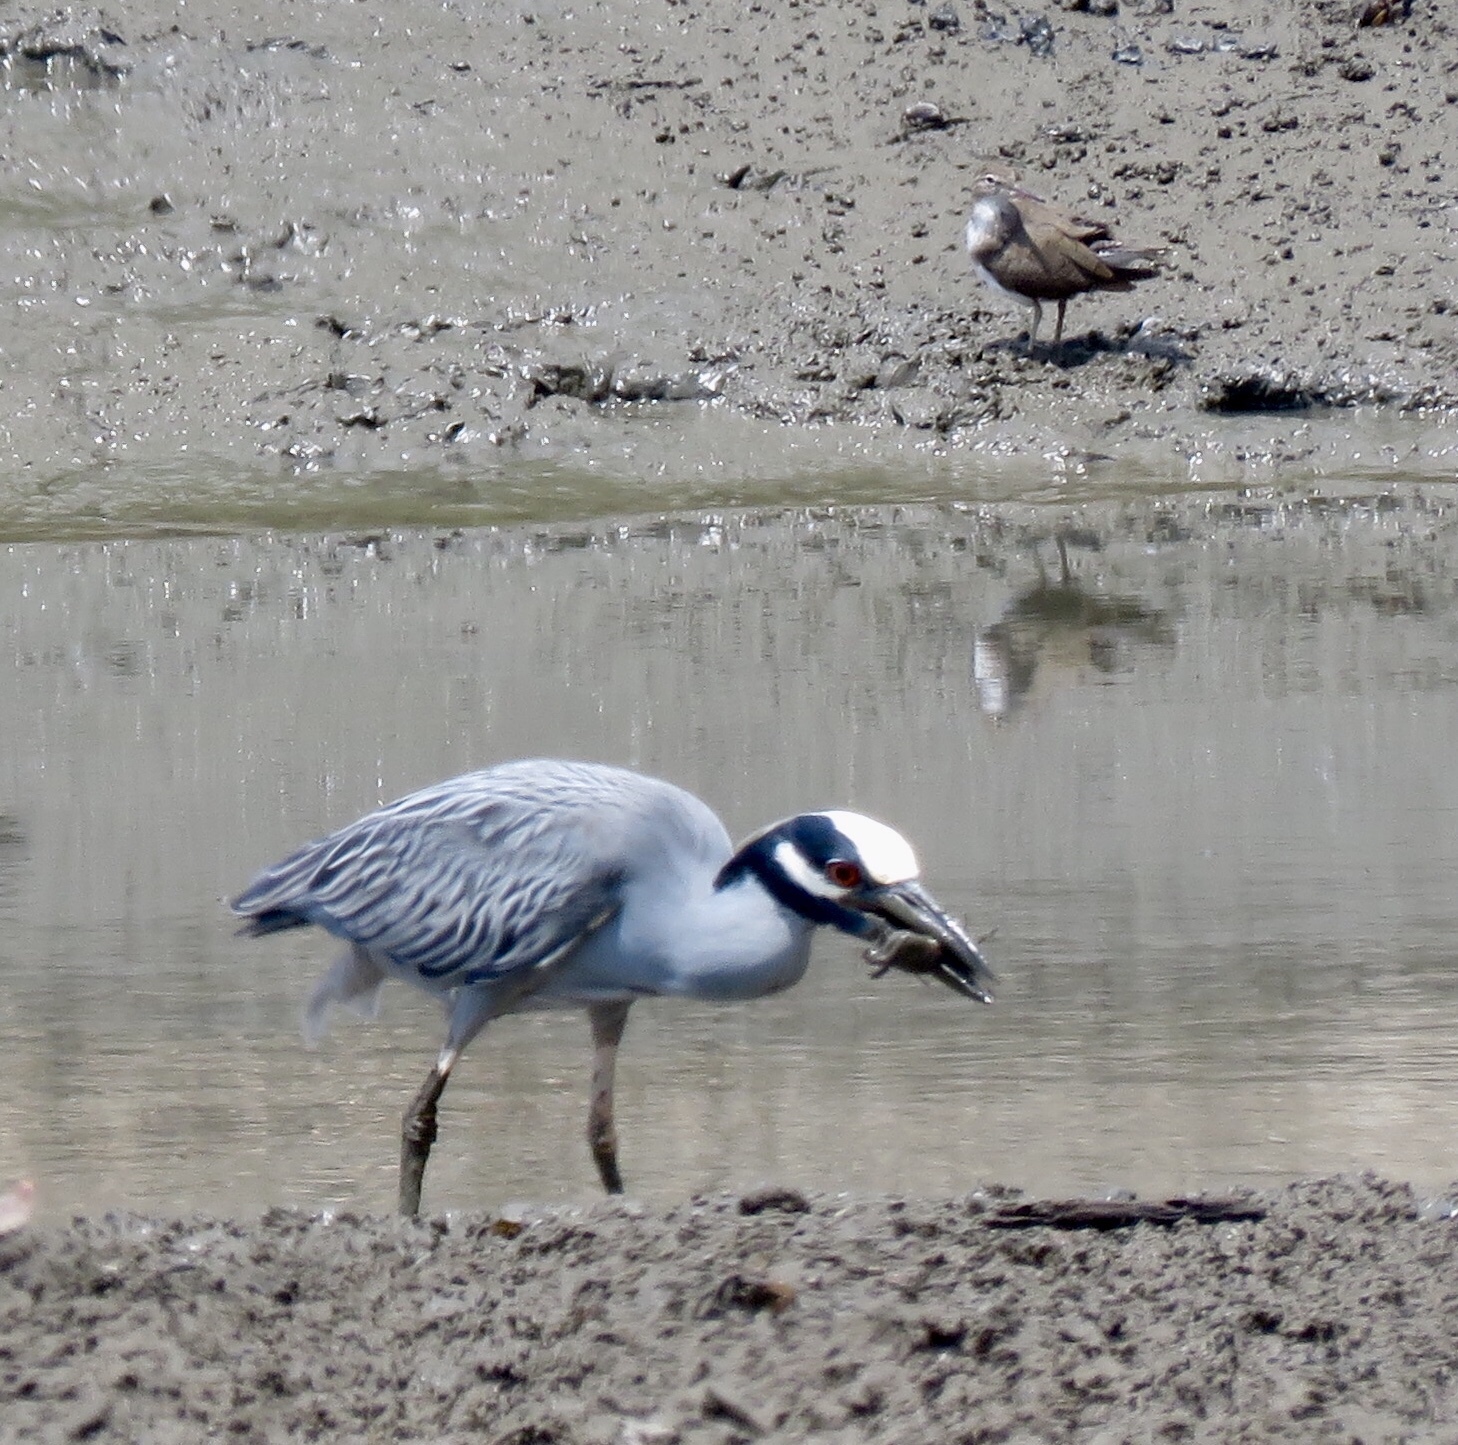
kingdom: Animalia
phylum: Chordata
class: Aves
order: Pelecaniformes
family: Ardeidae
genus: Nyctanassa
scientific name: Nyctanassa violacea
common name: Yellow-crowned night heron
